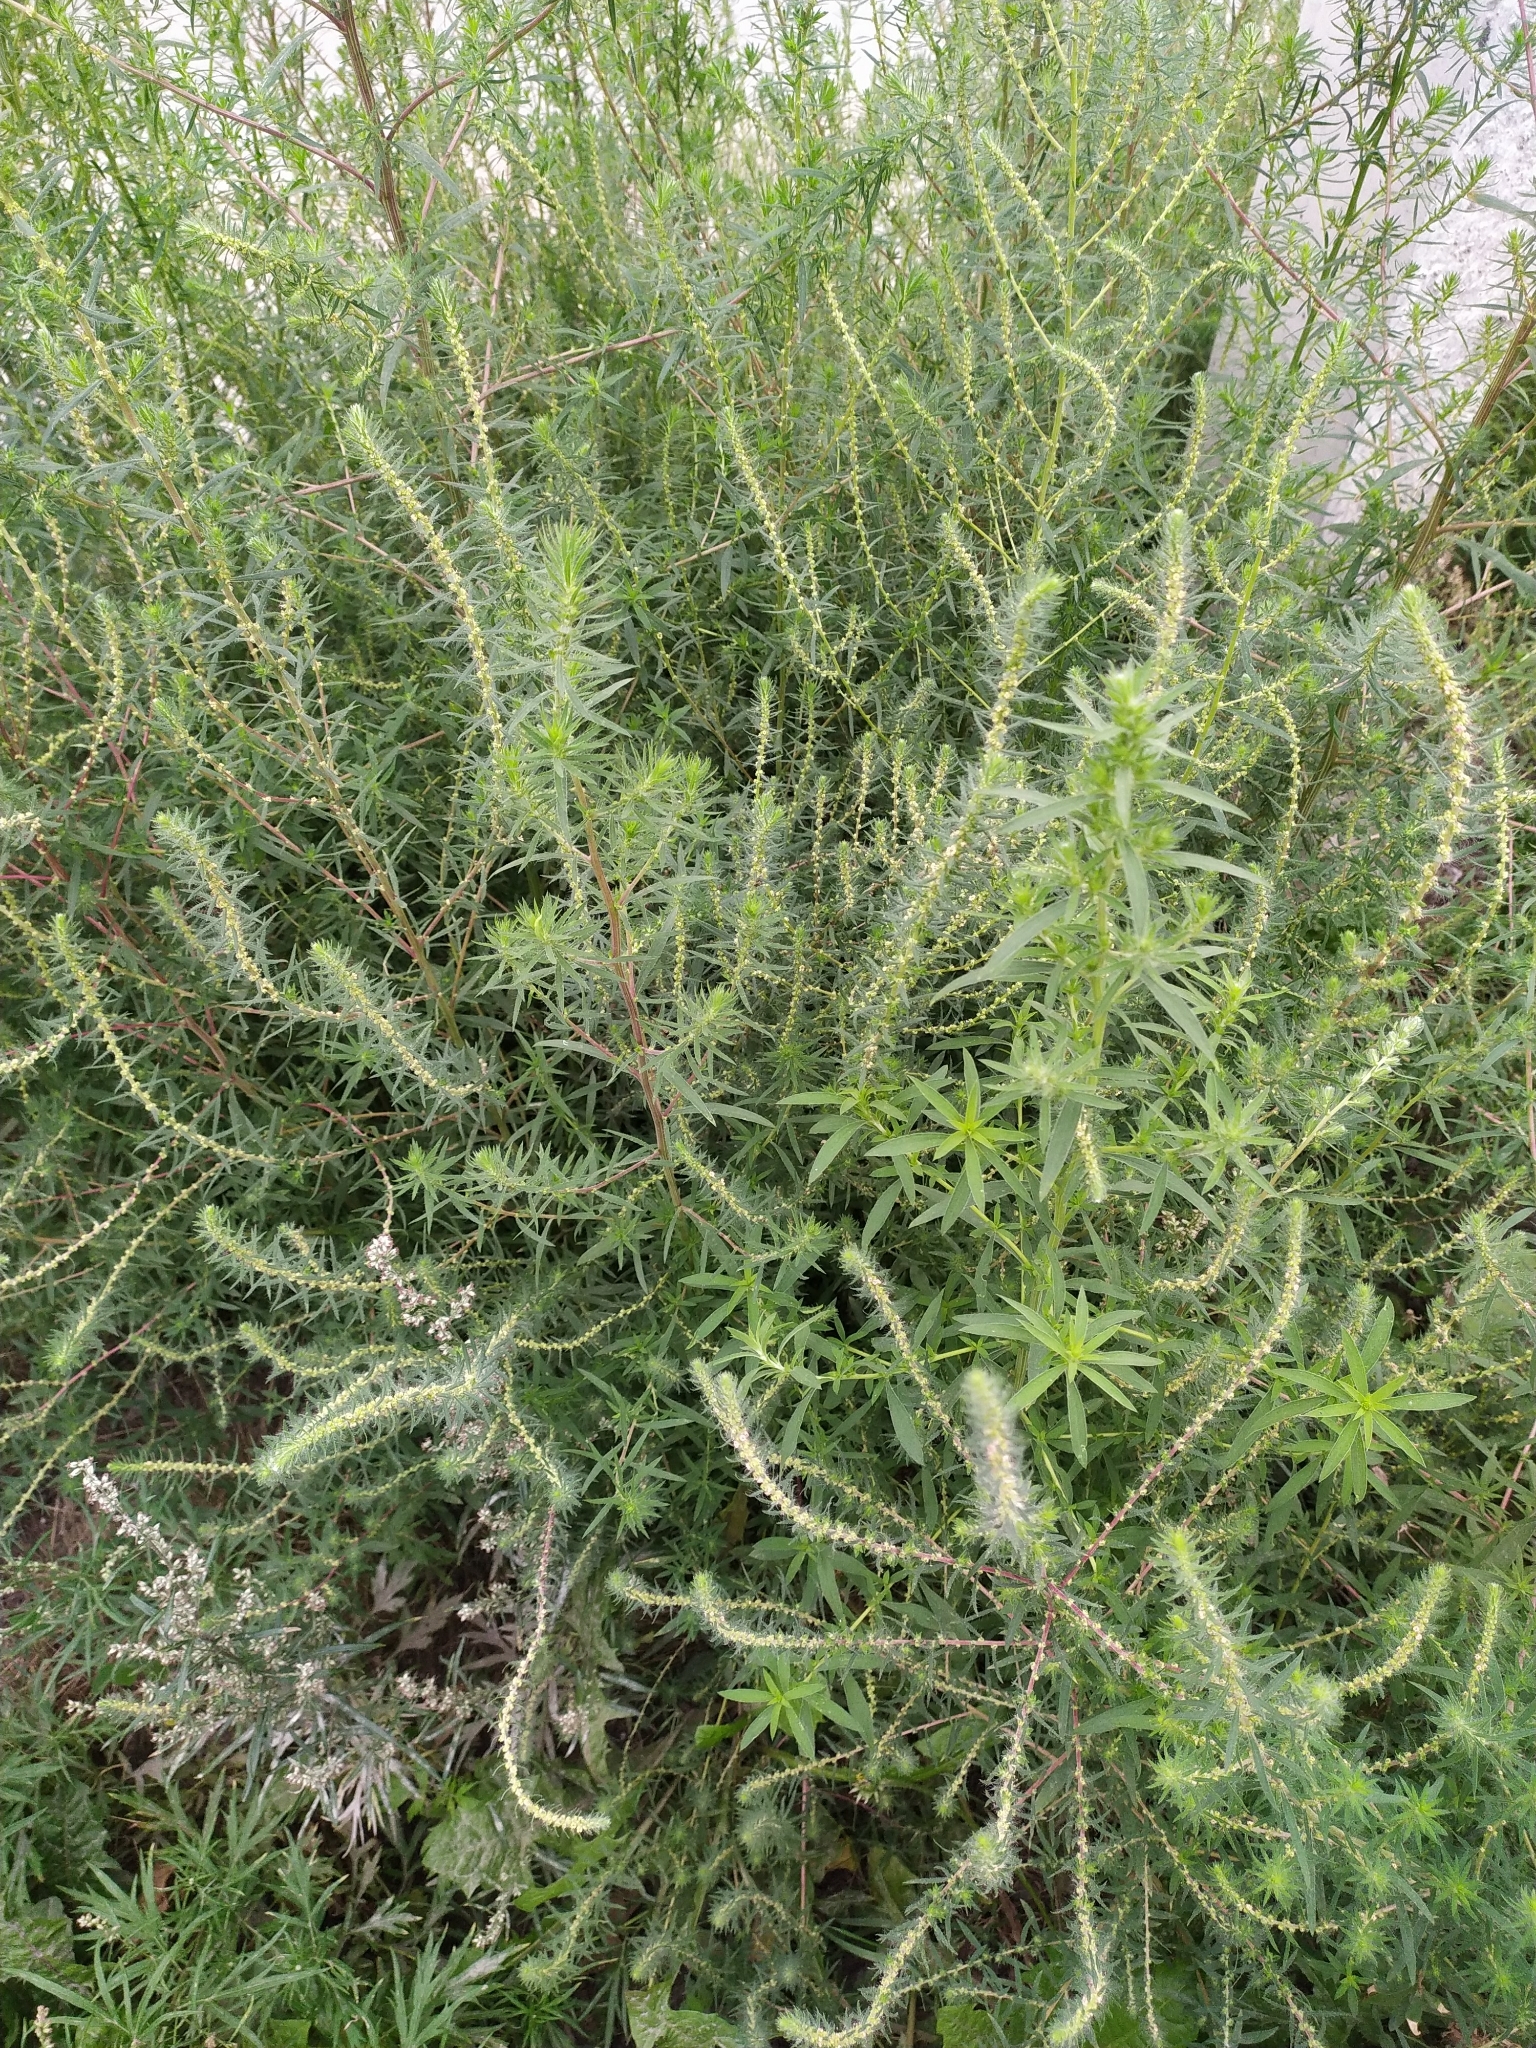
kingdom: Plantae
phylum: Tracheophyta
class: Magnoliopsida
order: Caryophyllales
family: Amaranthaceae
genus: Bassia
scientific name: Bassia scoparia
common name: Belvedere
